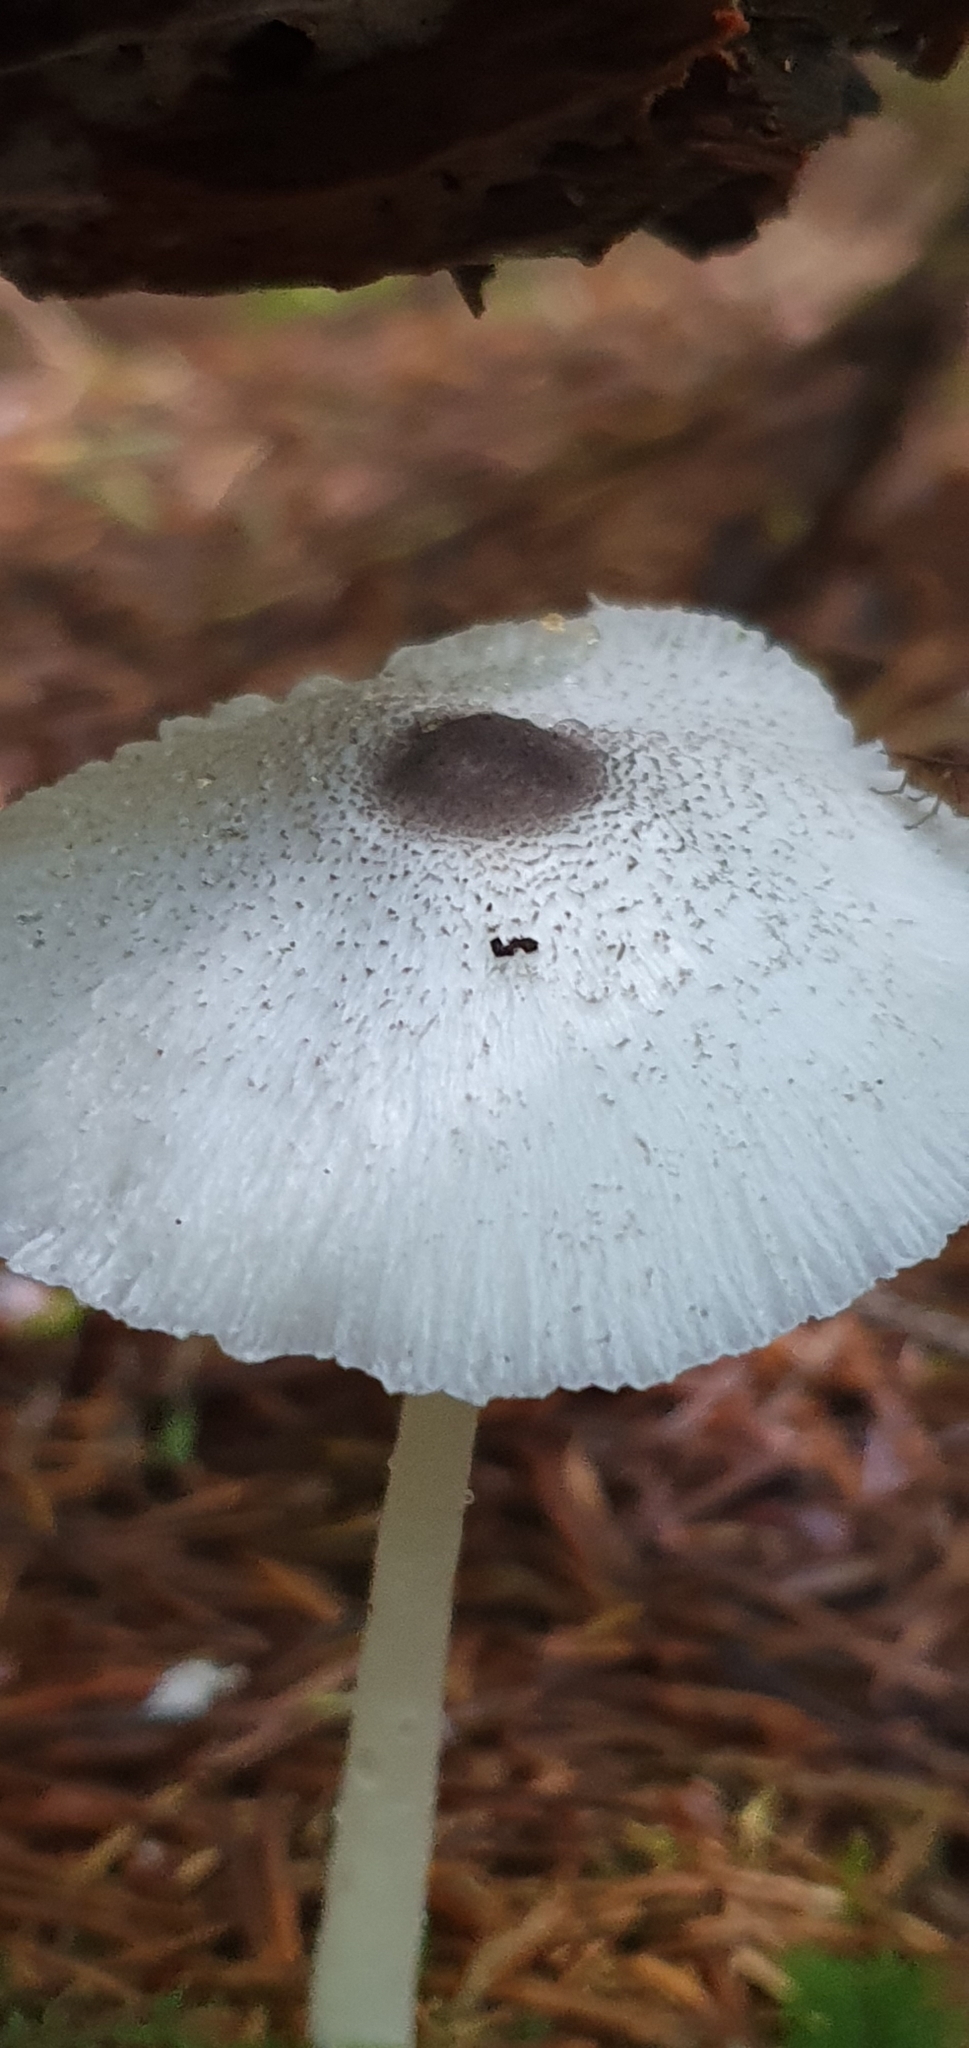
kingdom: Fungi
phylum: Basidiomycota
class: Agaricomycetes
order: Agaricales
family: Agaricaceae
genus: Leucocoprinus
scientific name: Leucocoprinus brebissonii
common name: Skullcap dapperling
